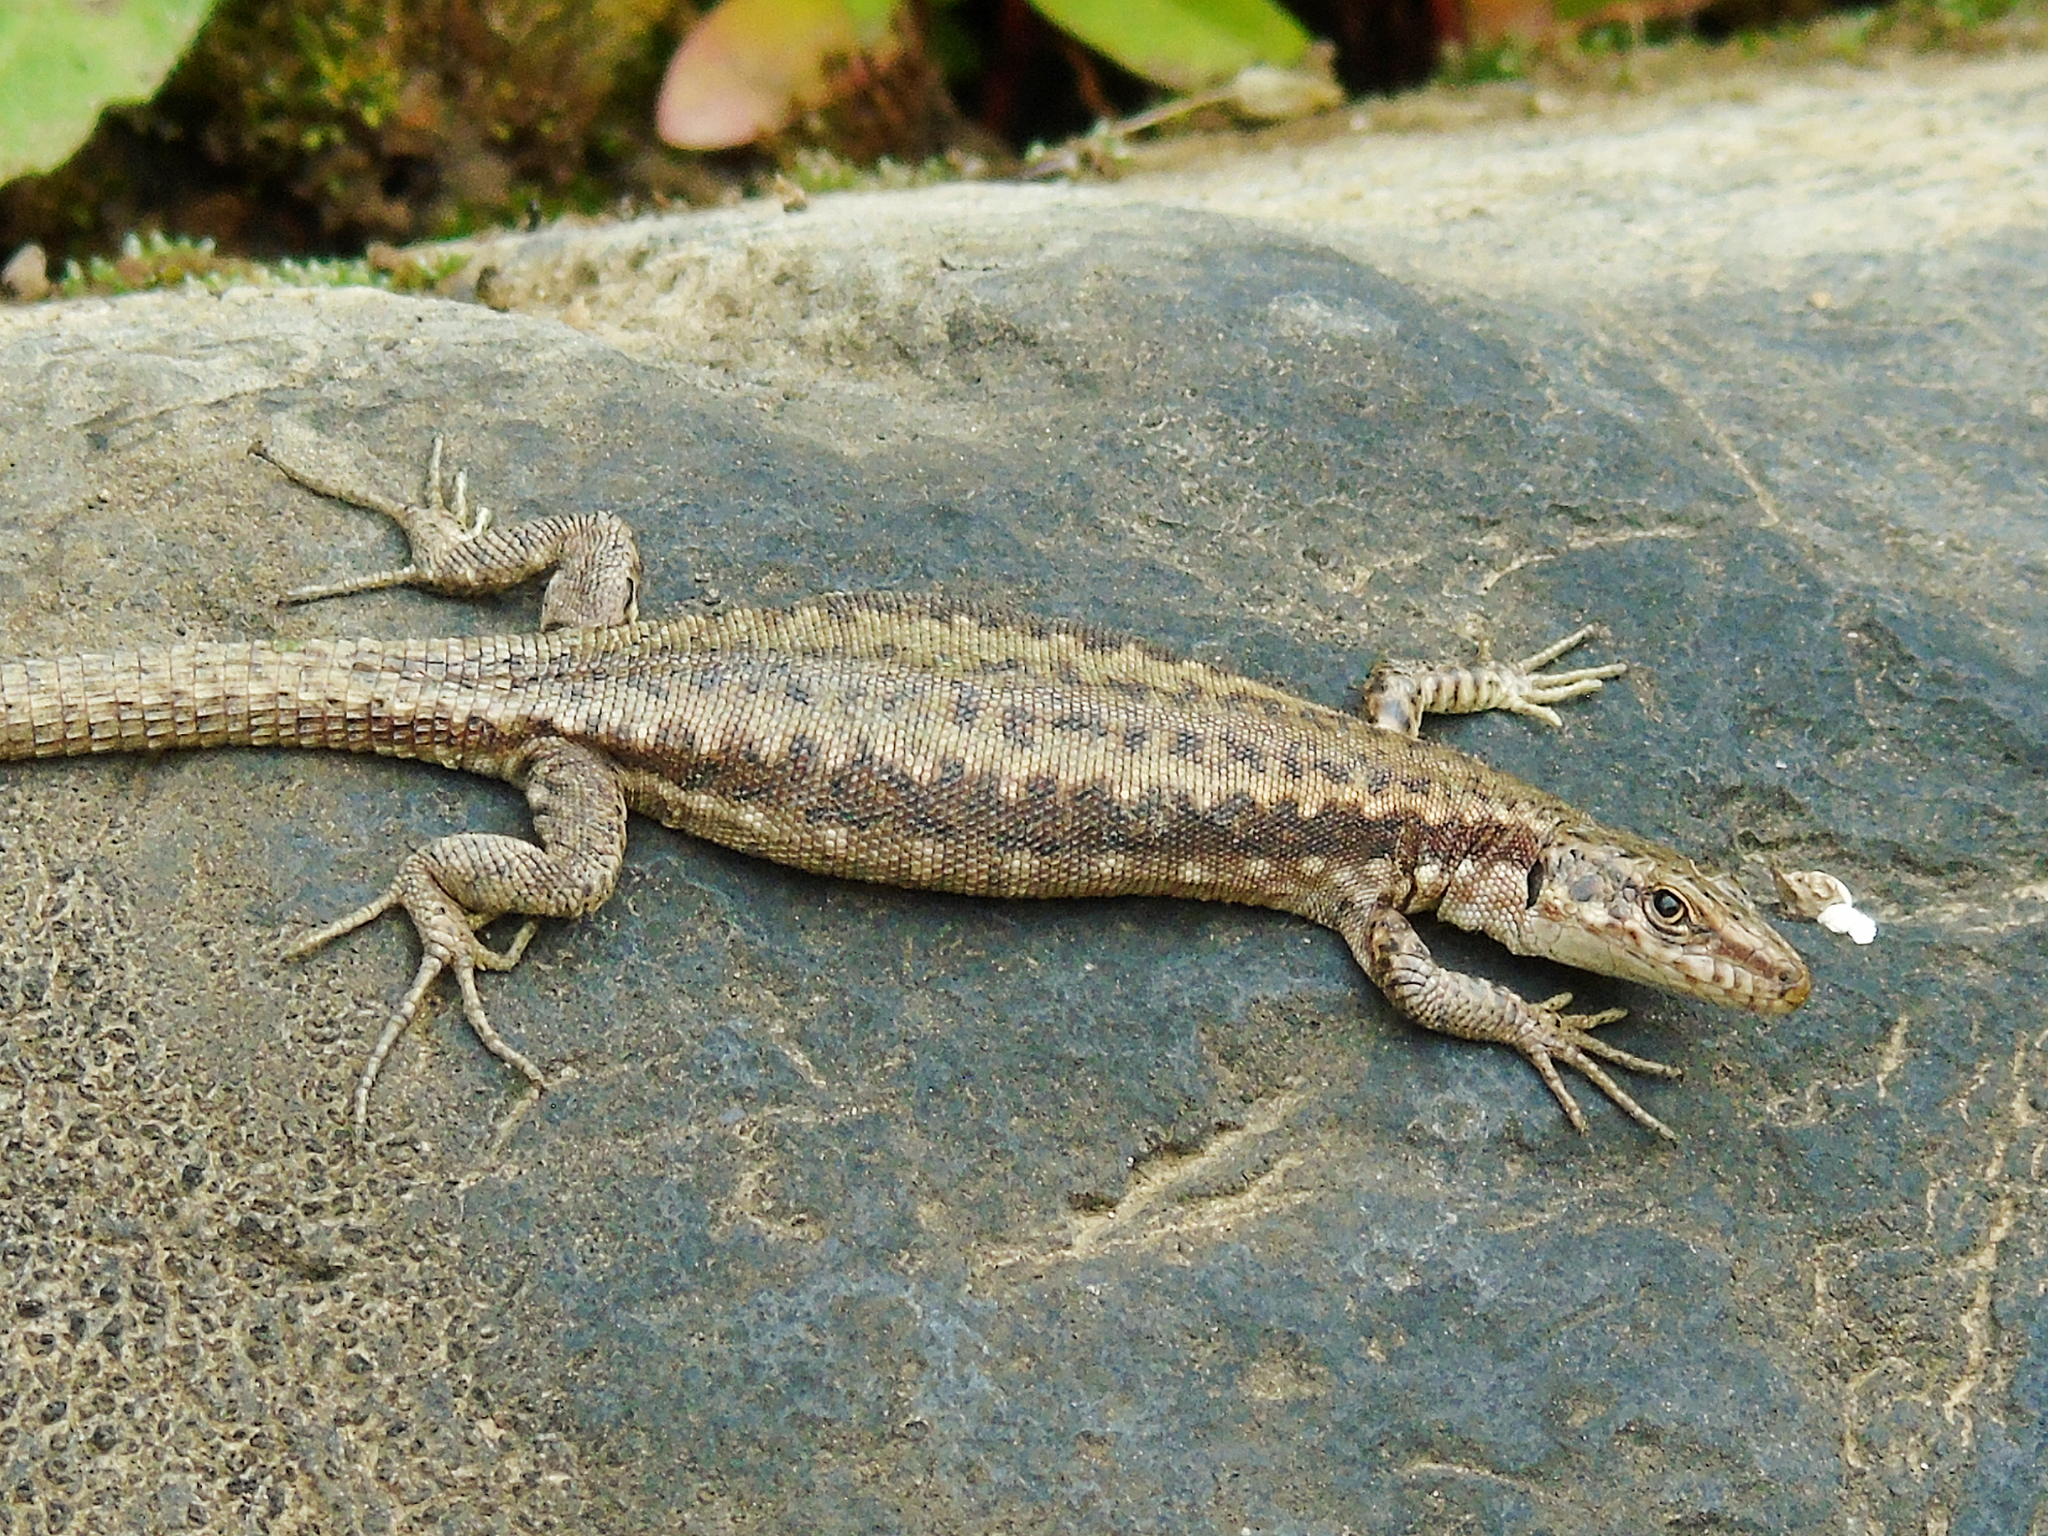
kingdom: Animalia
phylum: Chordata
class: Squamata
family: Lacertidae
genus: Darevskia
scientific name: Darevskia
